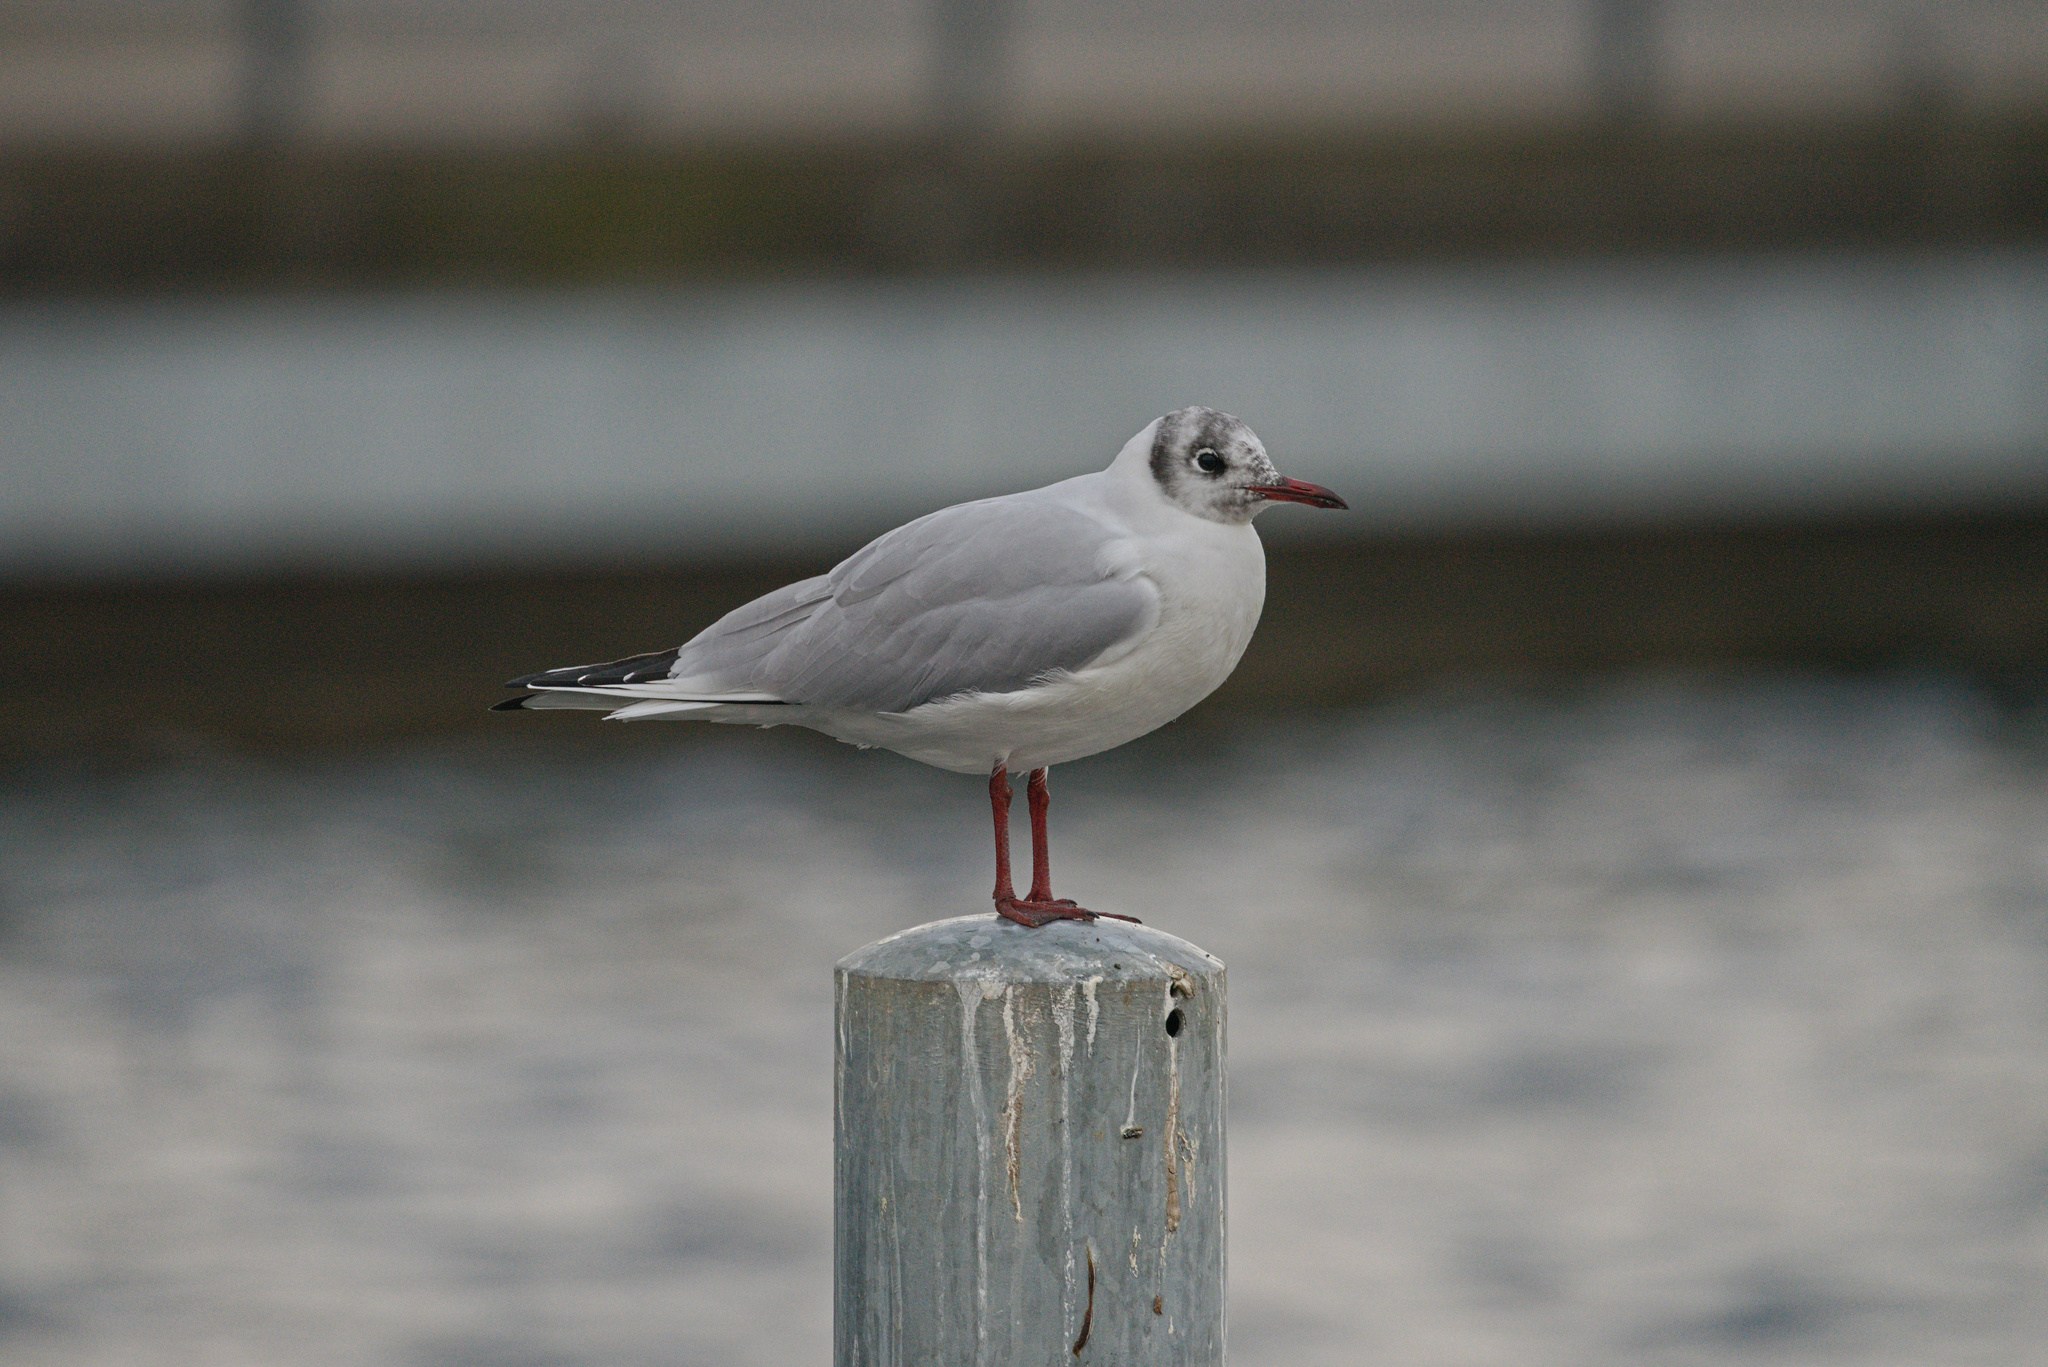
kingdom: Animalia
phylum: Chordata
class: Aves
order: Charadriiformes
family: Laridae
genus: Chroicocephalus
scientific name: Chroicocephalus ridibundus
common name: Black-headed gull
